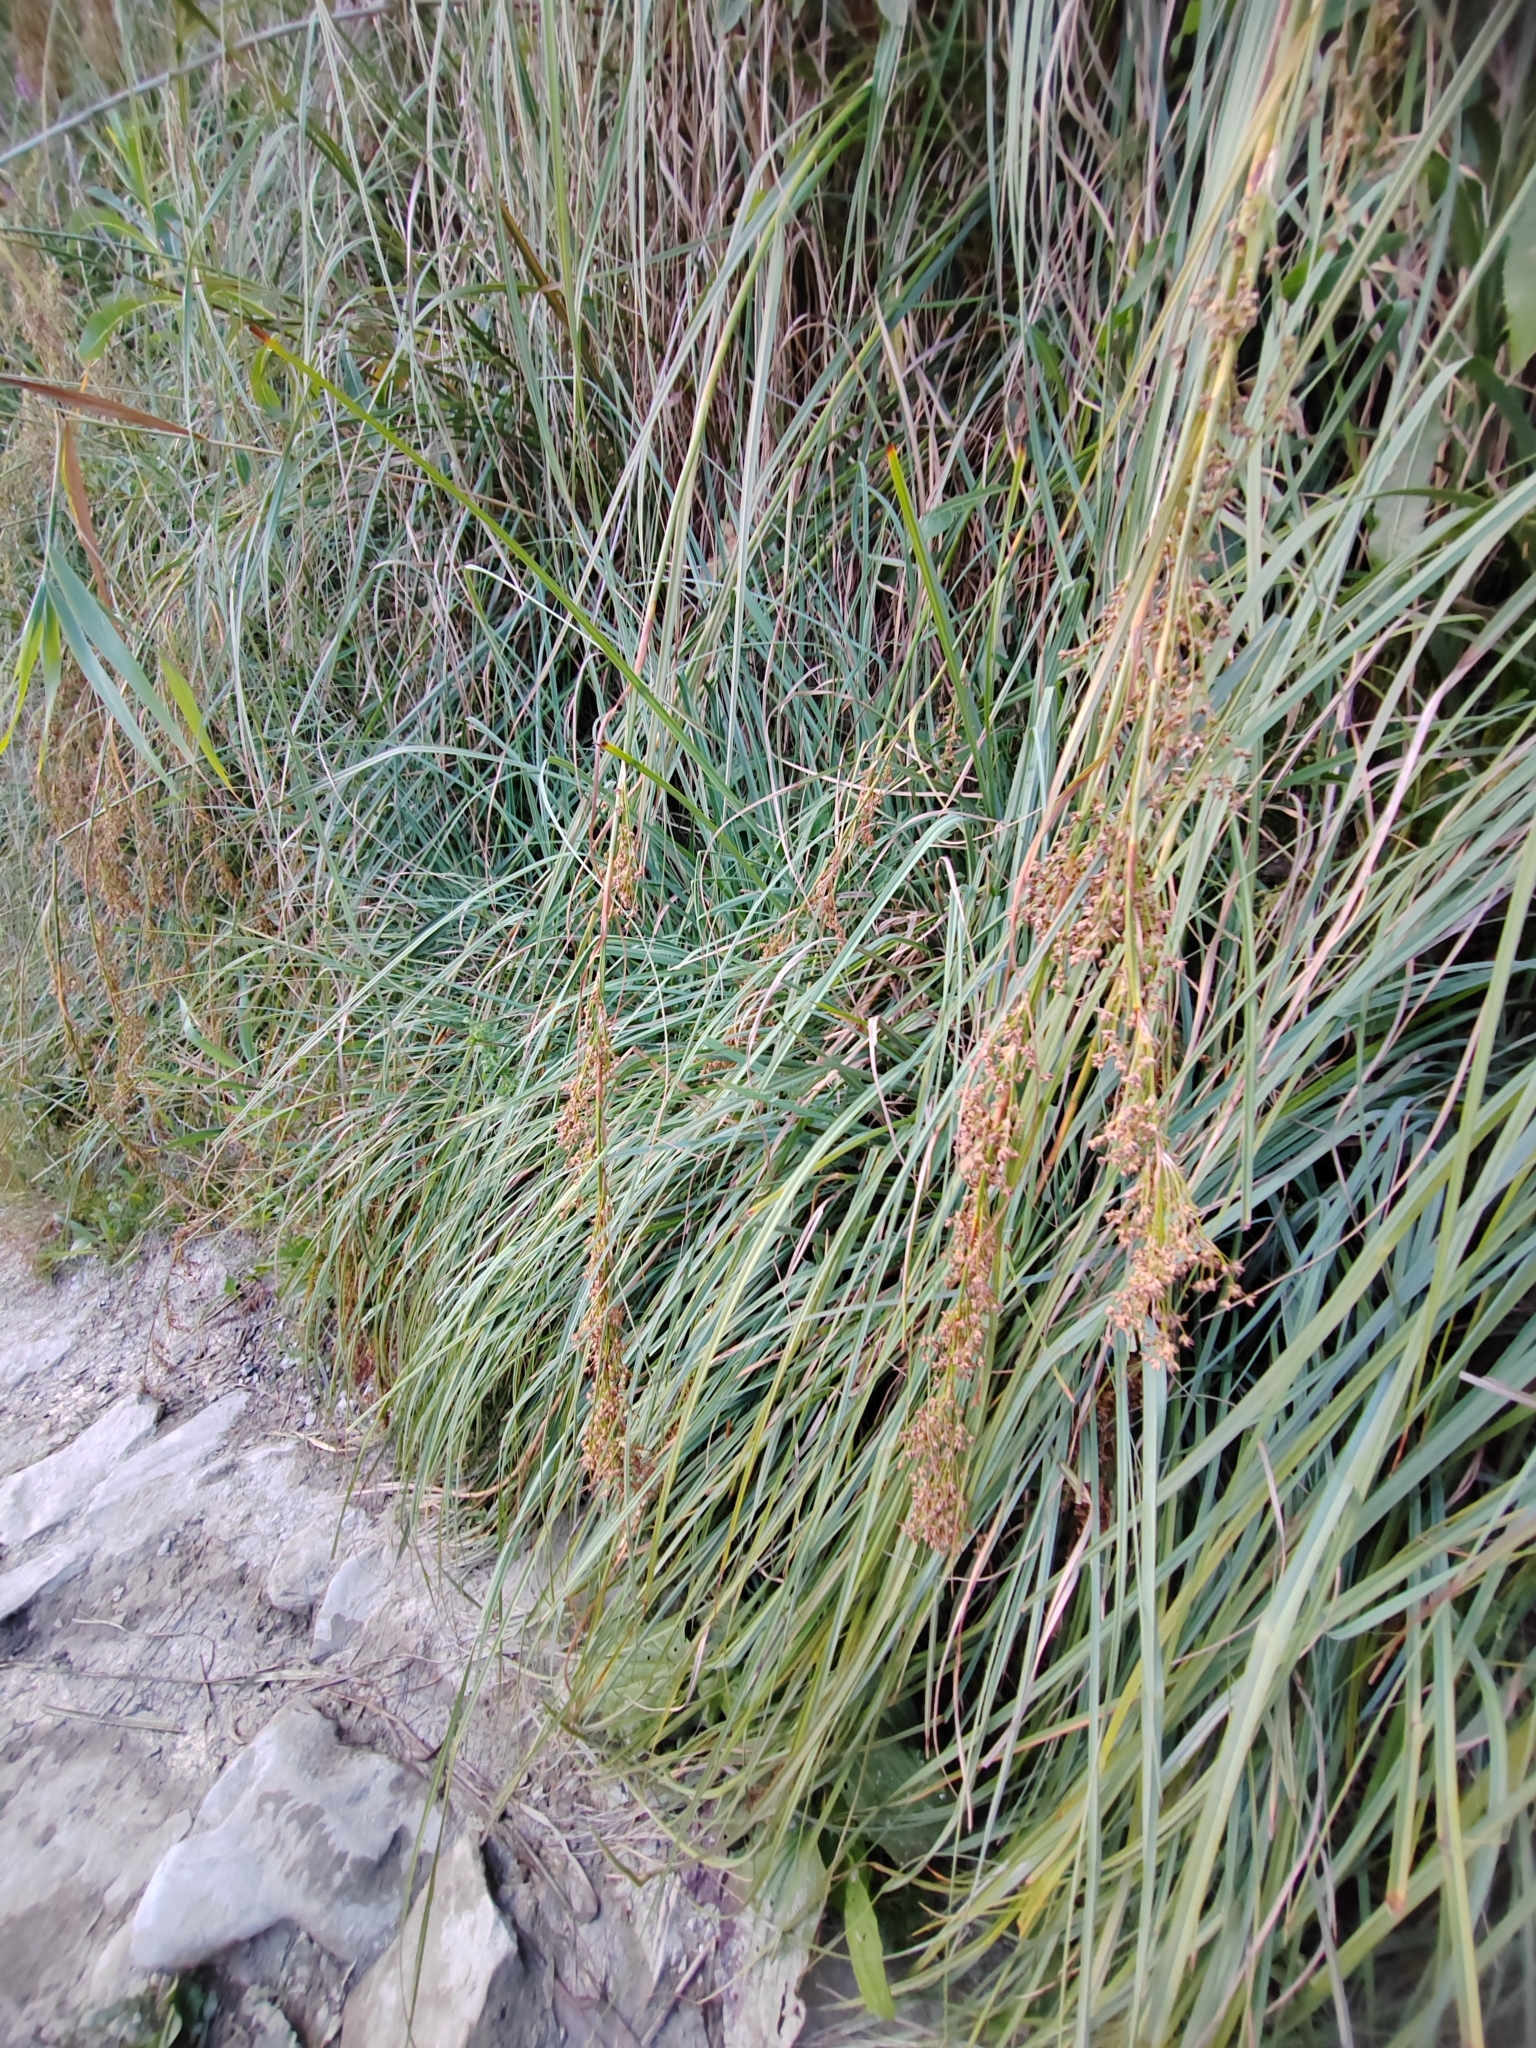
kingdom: Plantae
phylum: Tracheophyta
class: Liliopsida
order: Poales
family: Cyperaceae
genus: Cladium
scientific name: Cladium mariscus
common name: Great fen-sedge
